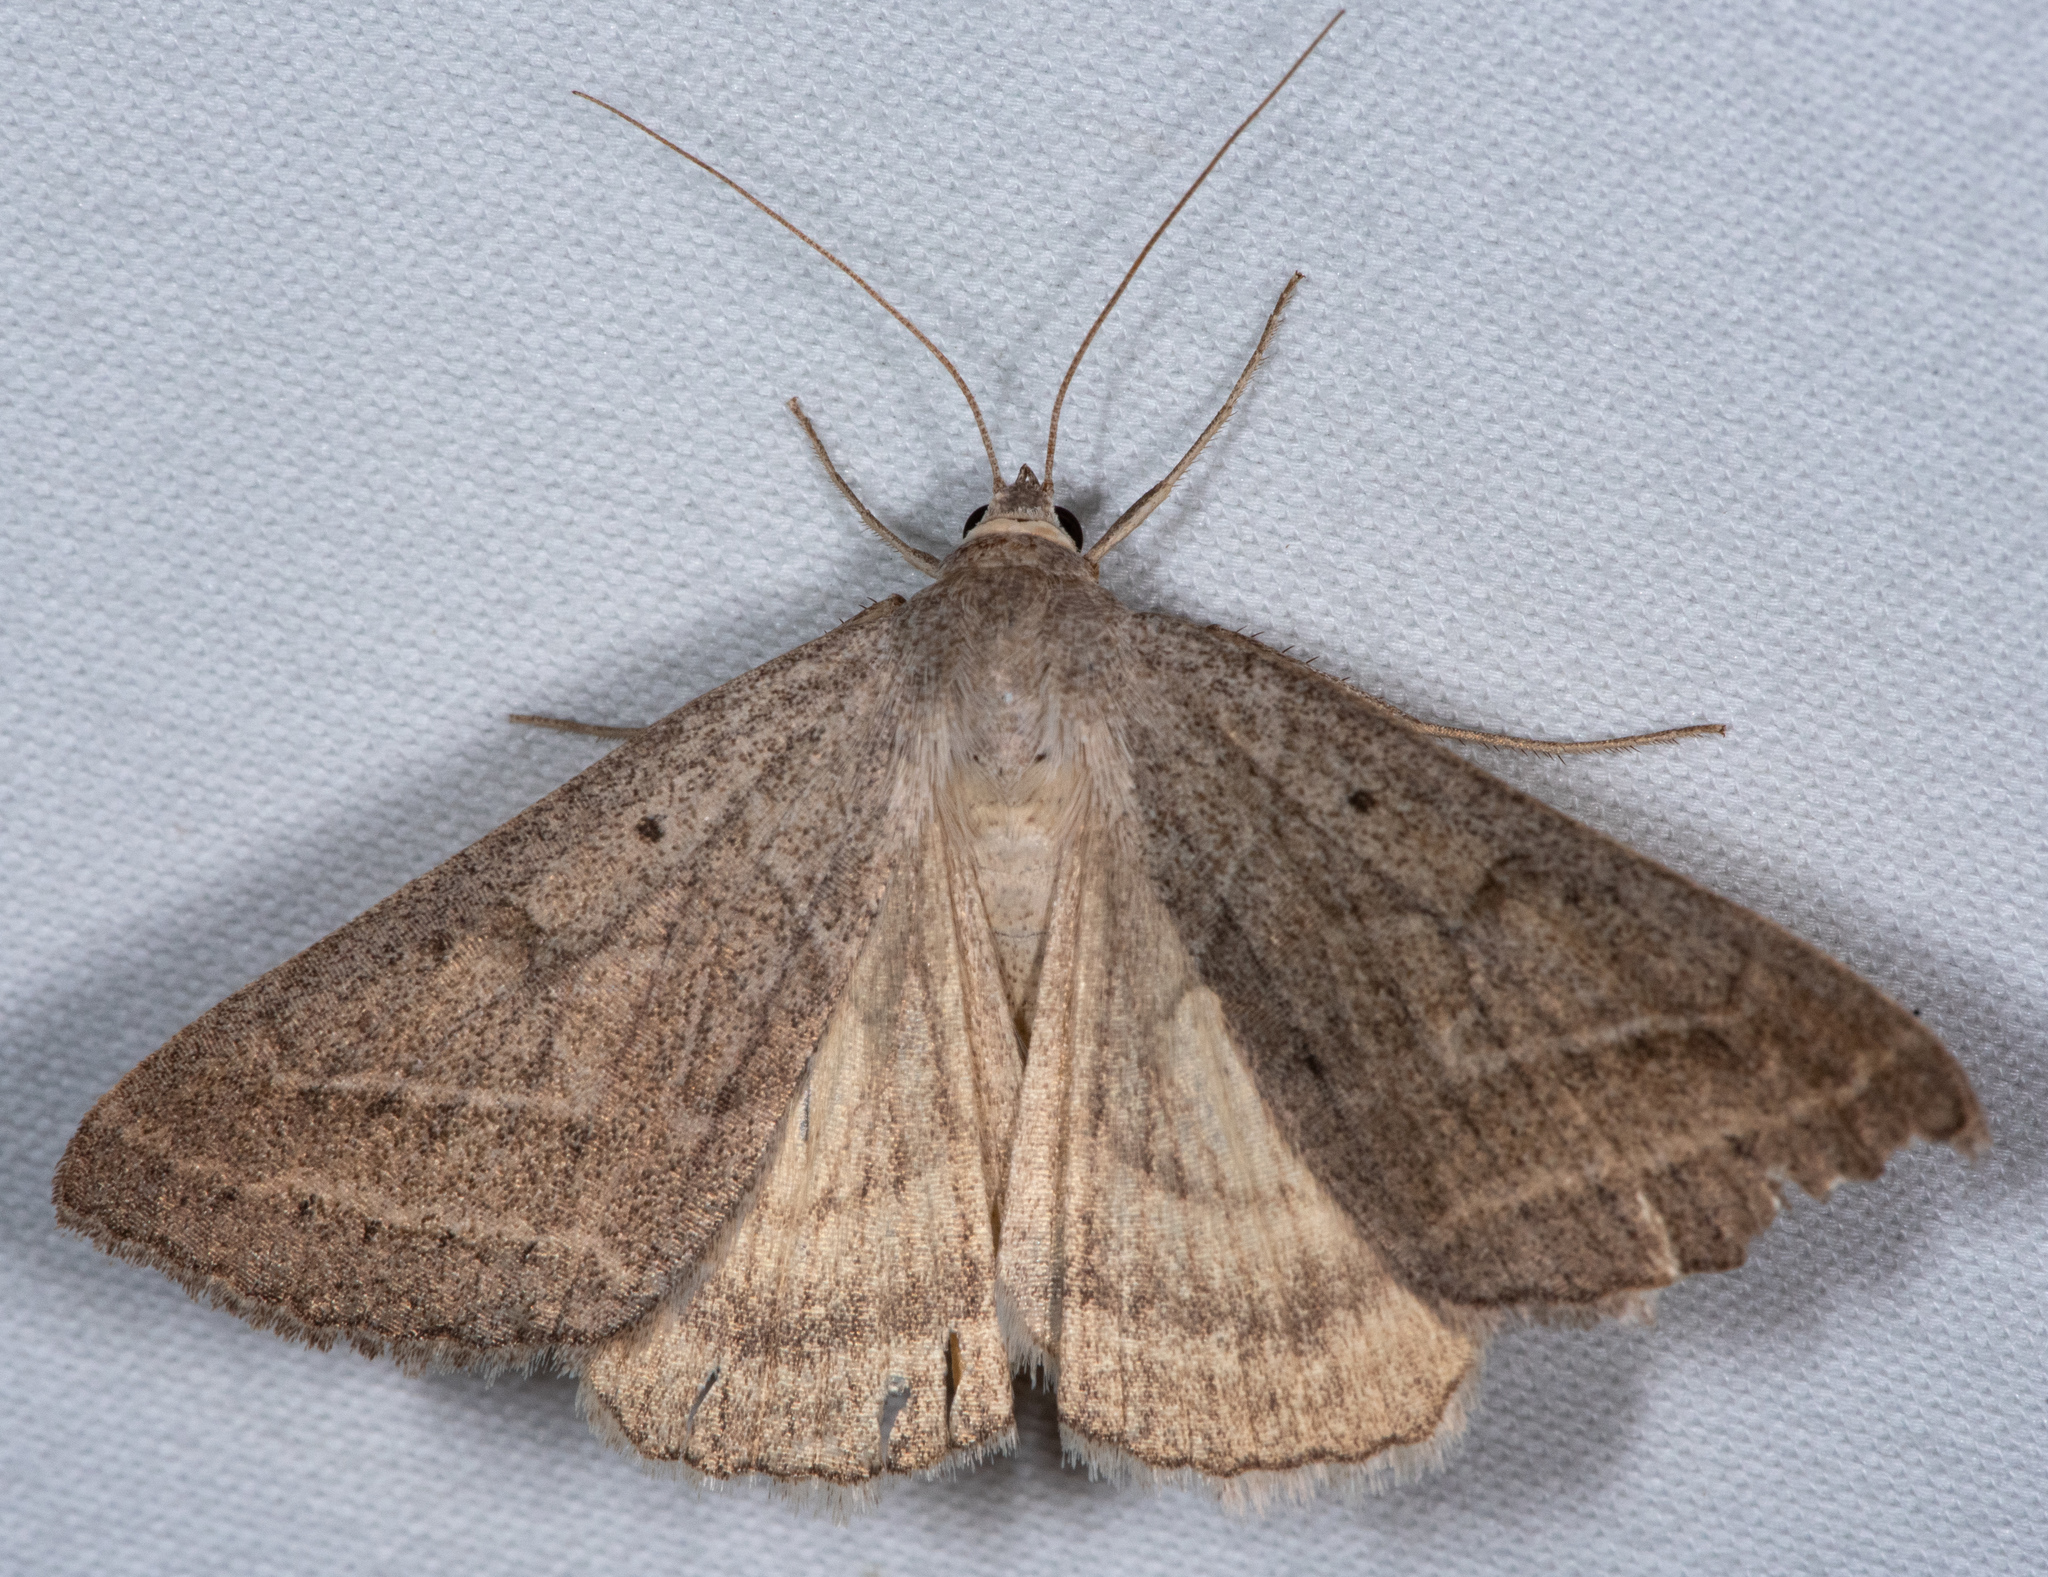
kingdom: Animalia
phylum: Arthropoda
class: Insecta
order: Lepidoptera
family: Erebidae
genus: Caenurgia
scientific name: Caenurgia togataria
